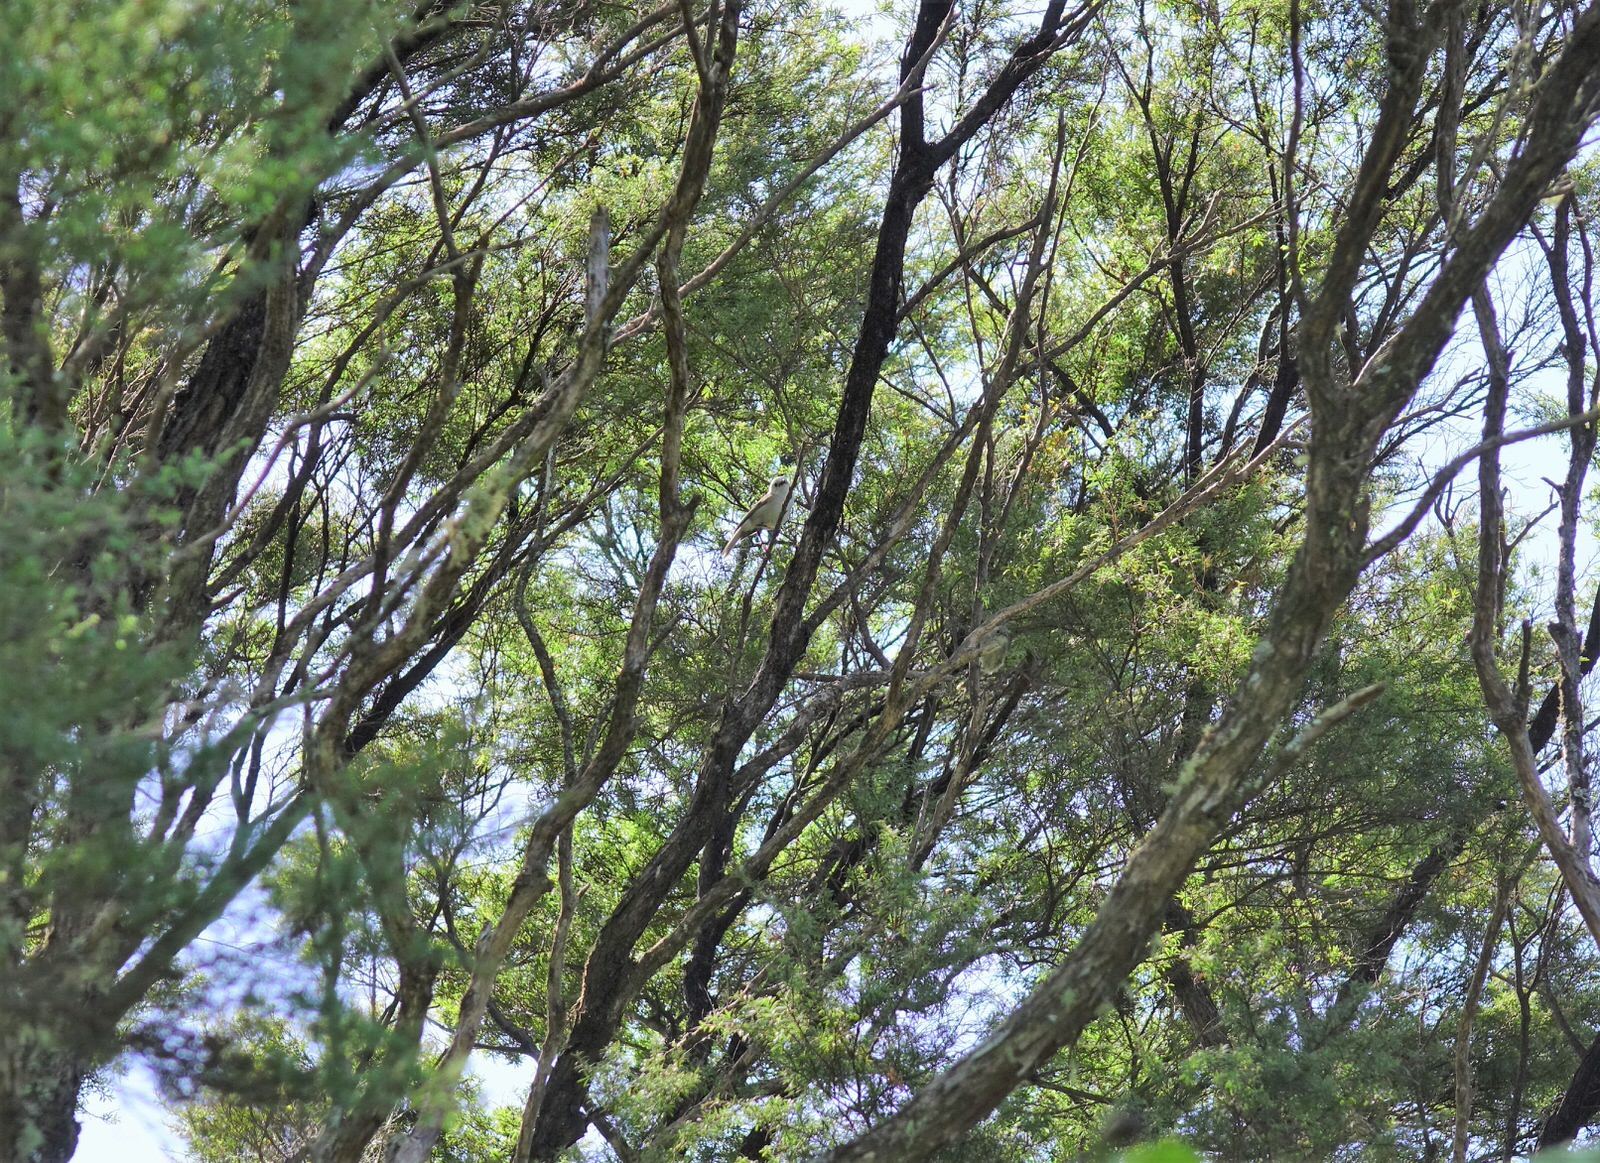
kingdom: Animalia
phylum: Chordata
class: Aves
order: Passeriformes
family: Acanthizidae
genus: Mohoua
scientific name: Mohoua albicilla
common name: Whitehead
